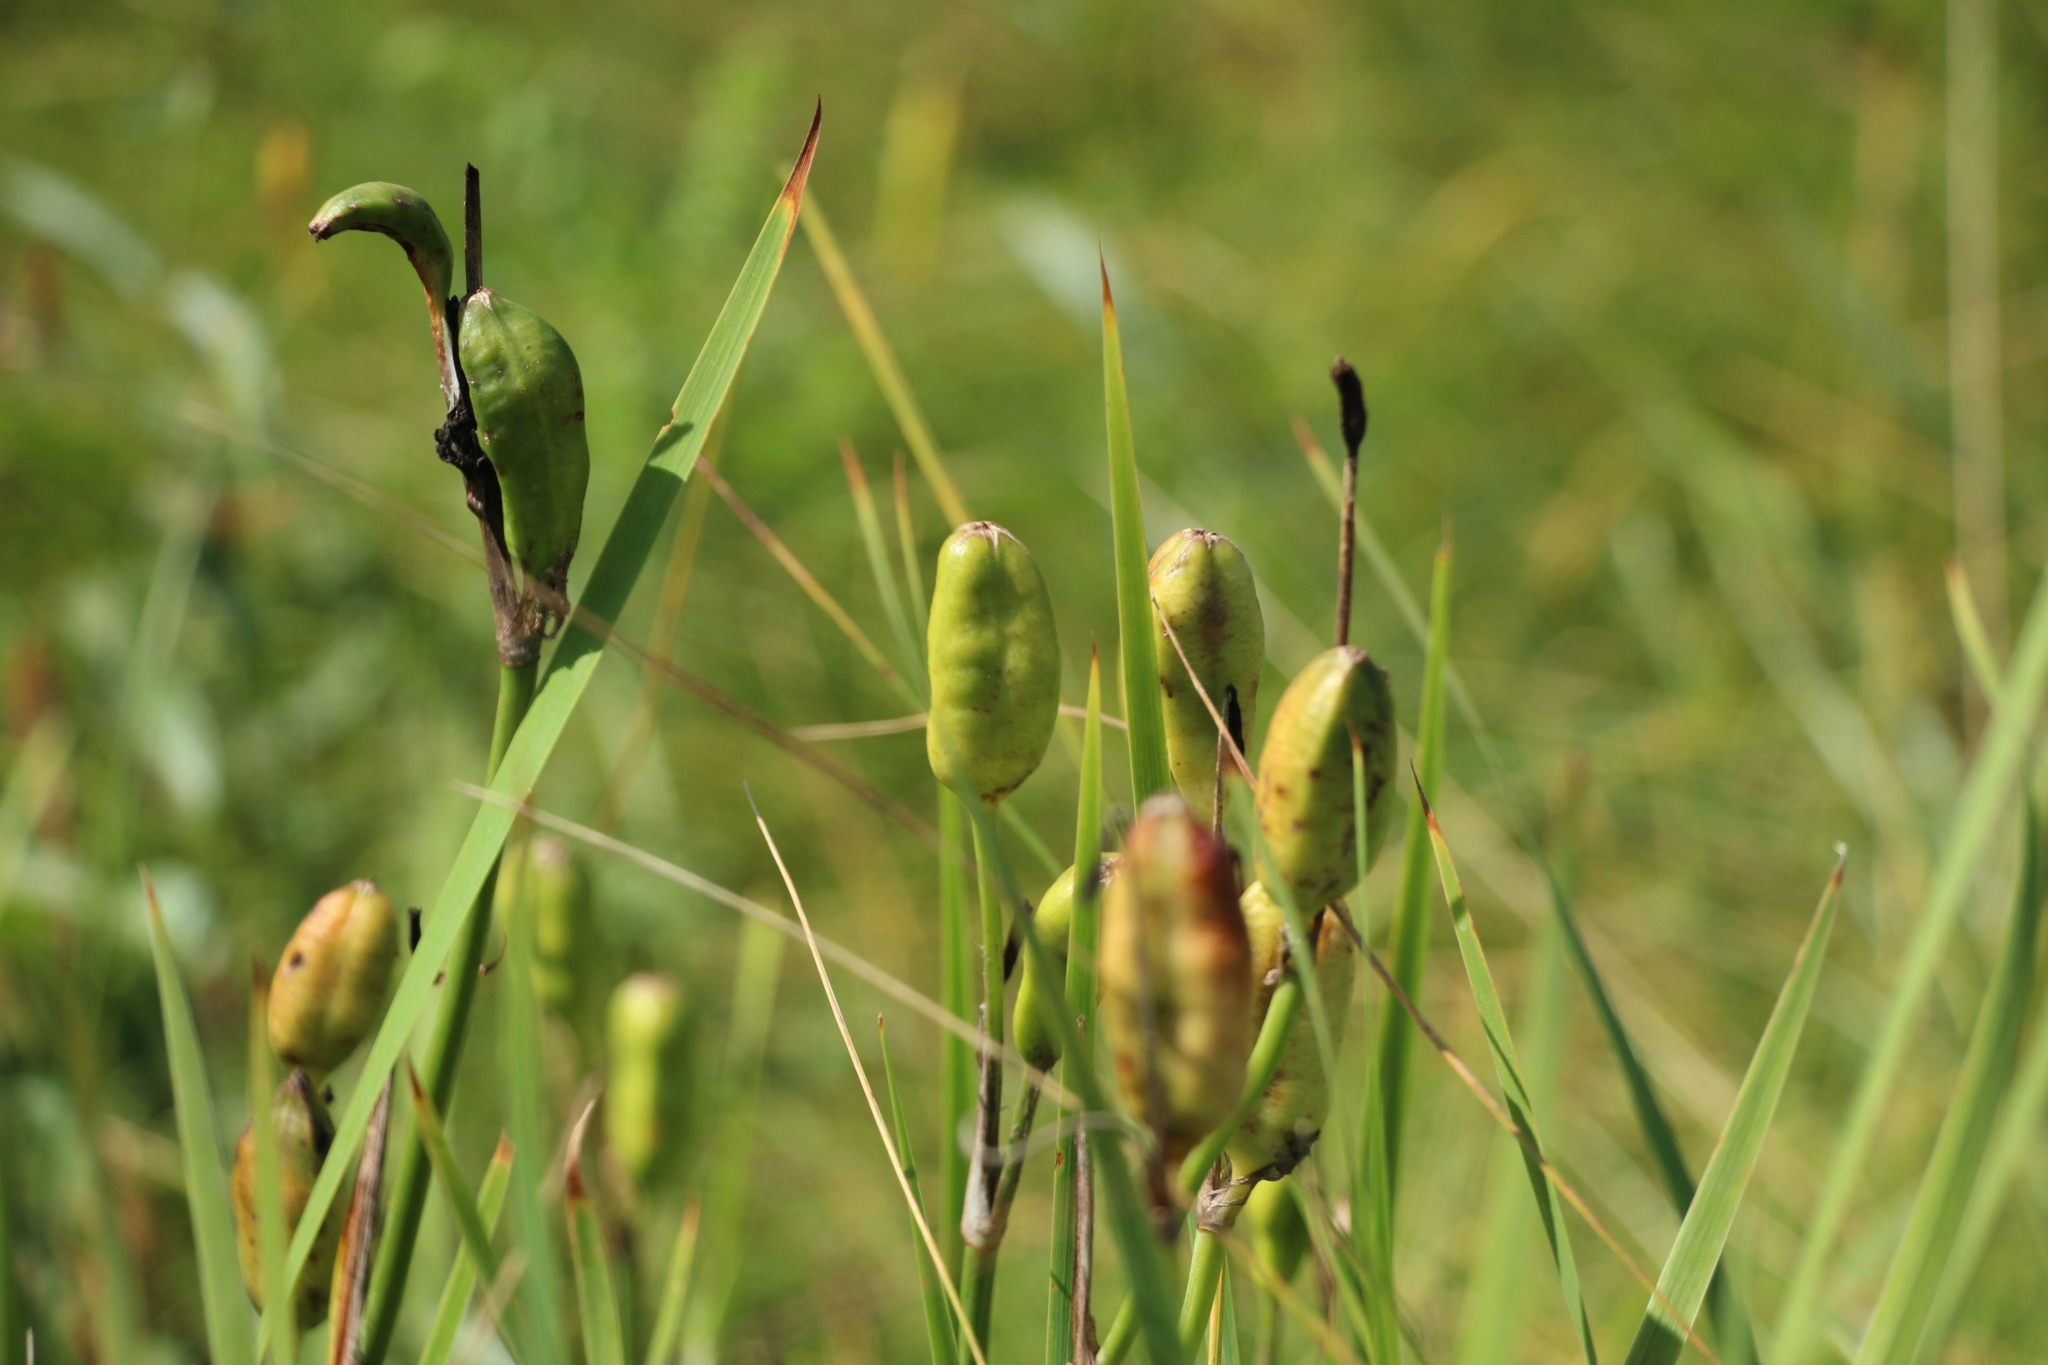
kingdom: Plantae
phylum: Tracheophyta
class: Liliopsida
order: Asparagales
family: Iridaceae
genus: Iris
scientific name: Iris sibirica
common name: Siberian iris
